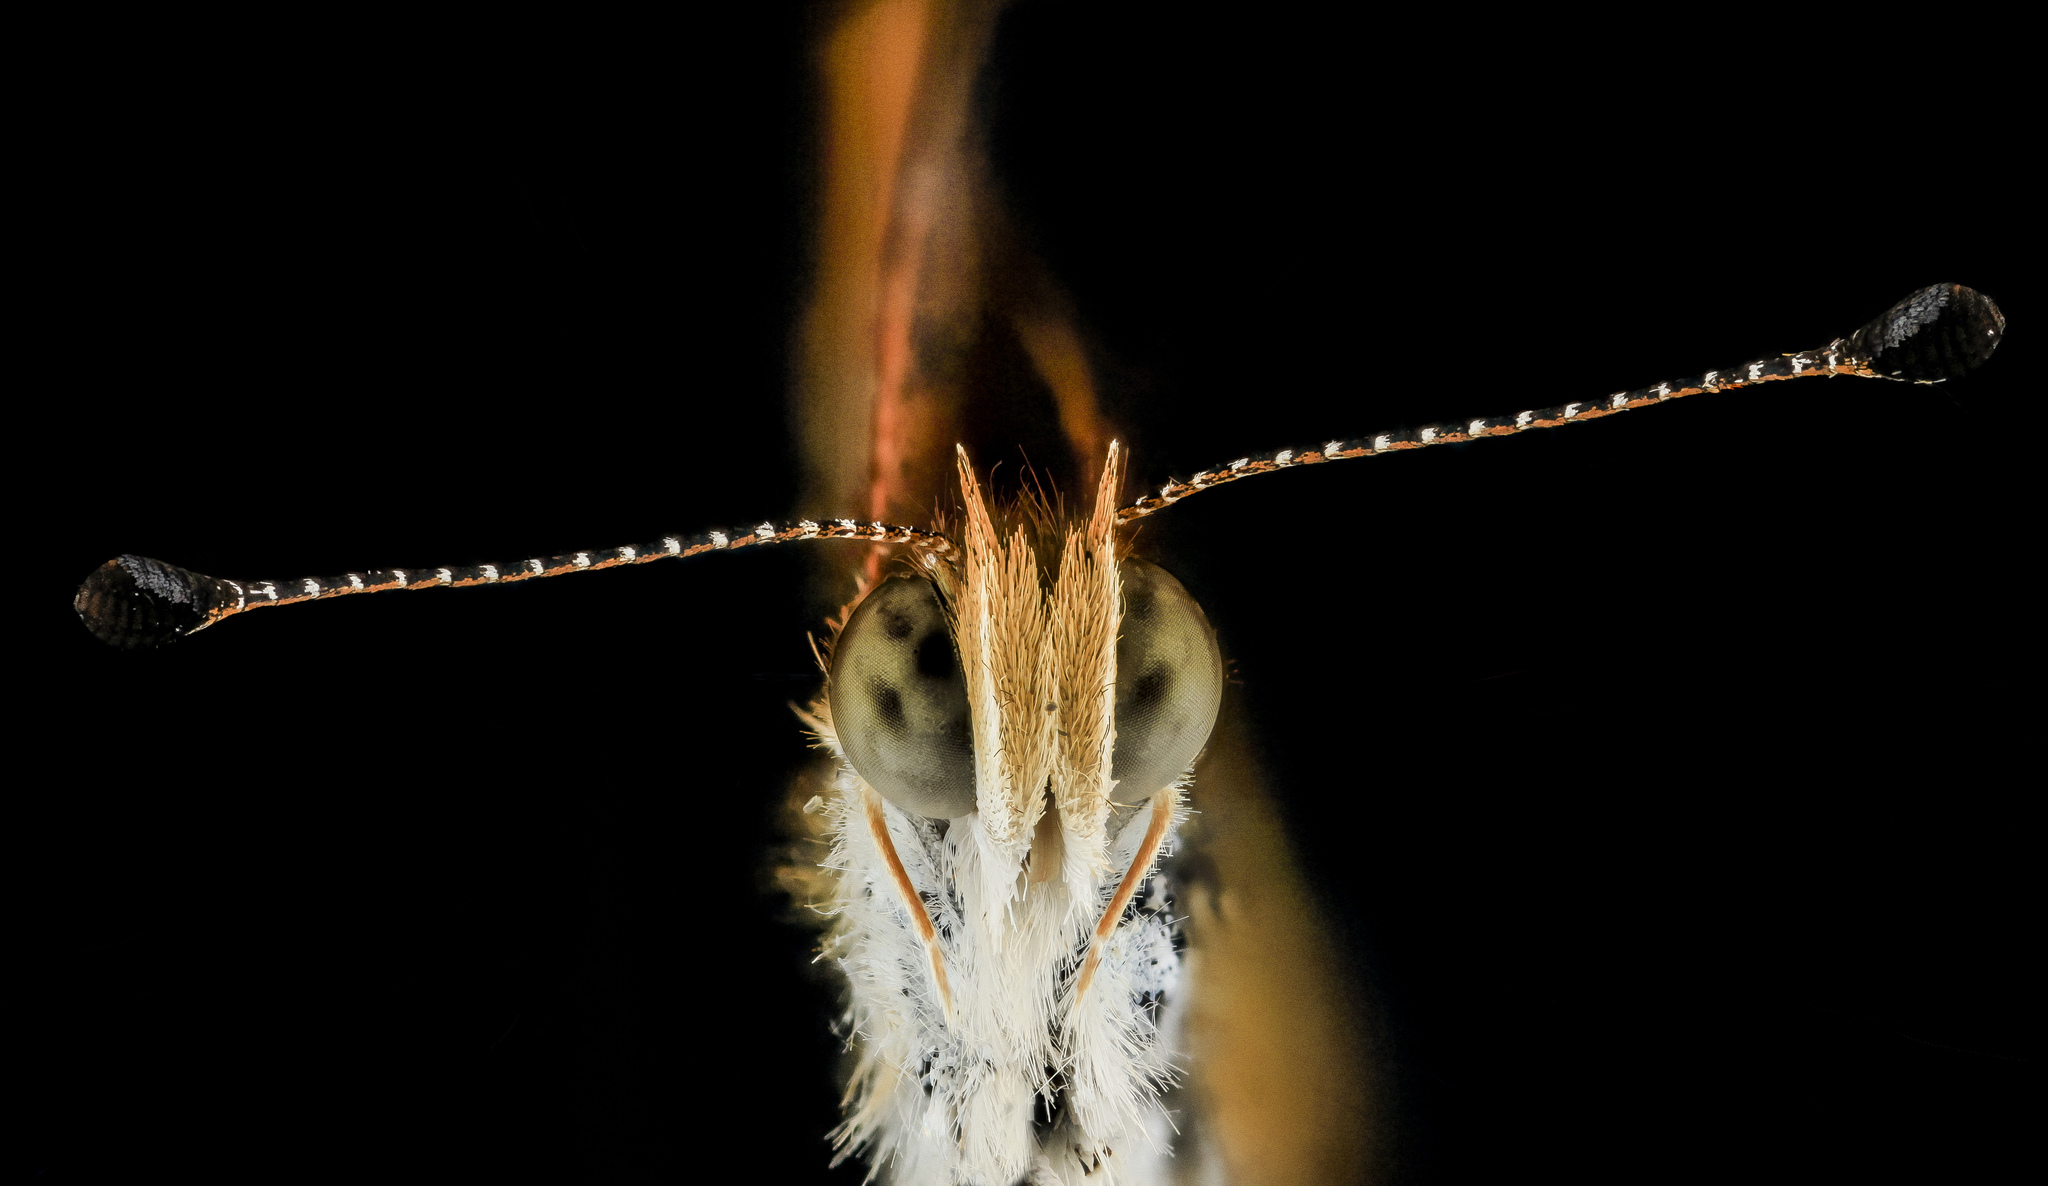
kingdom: Animalia
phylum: Arthropoda
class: Insecta
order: Lepidoptera
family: Nymphalidae
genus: Phyciodes
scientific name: Phyciodes tharos
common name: Pearl crescent
